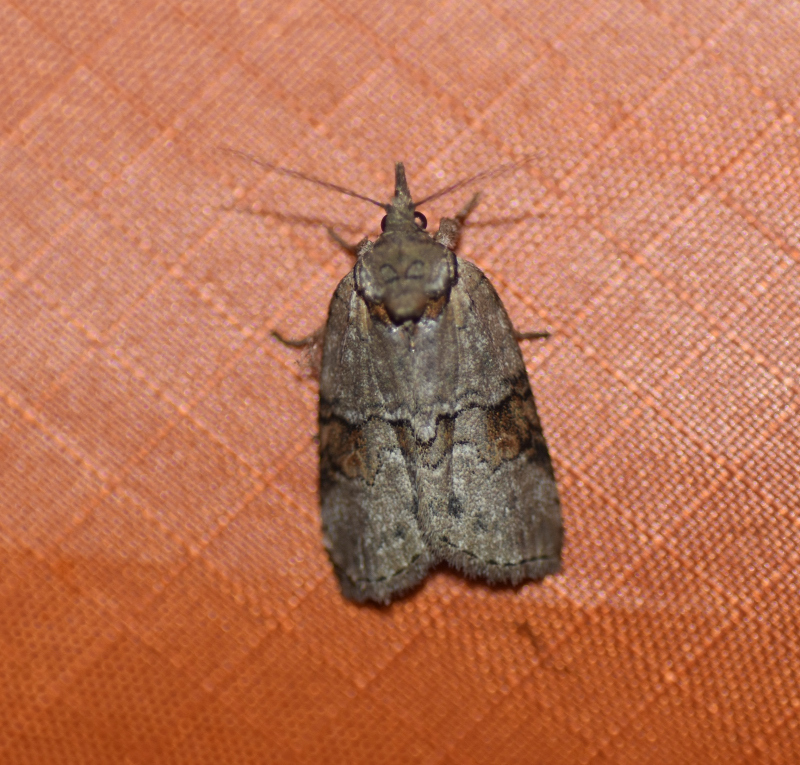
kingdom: Animalia
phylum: Arthropoda
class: Insecta
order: Lepidoptera
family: Nolidae
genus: Nycteola
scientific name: Nycteola cinereana
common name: Grey midget moth
